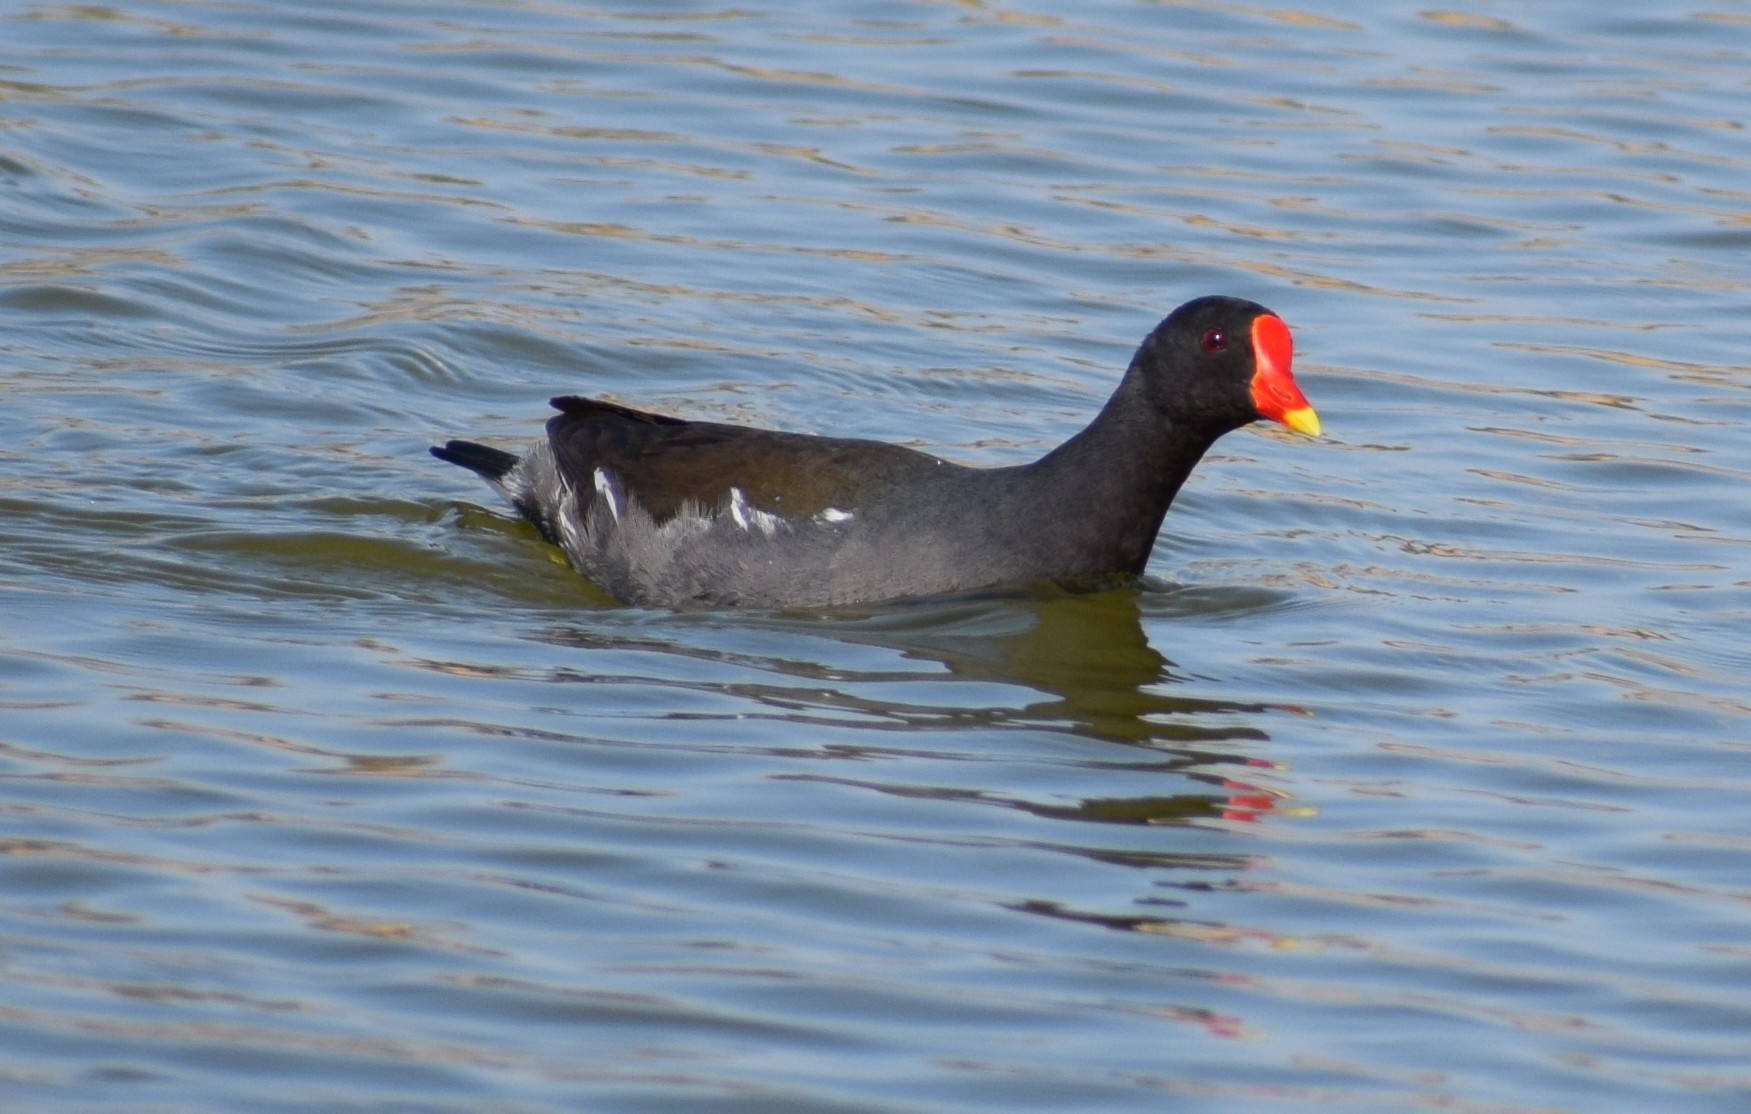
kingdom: Animalia
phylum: Chordata
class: Aves
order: Gruiformes
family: Rallidae
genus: Gallinula
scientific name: Gallinula chloropus
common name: Common moorhen
